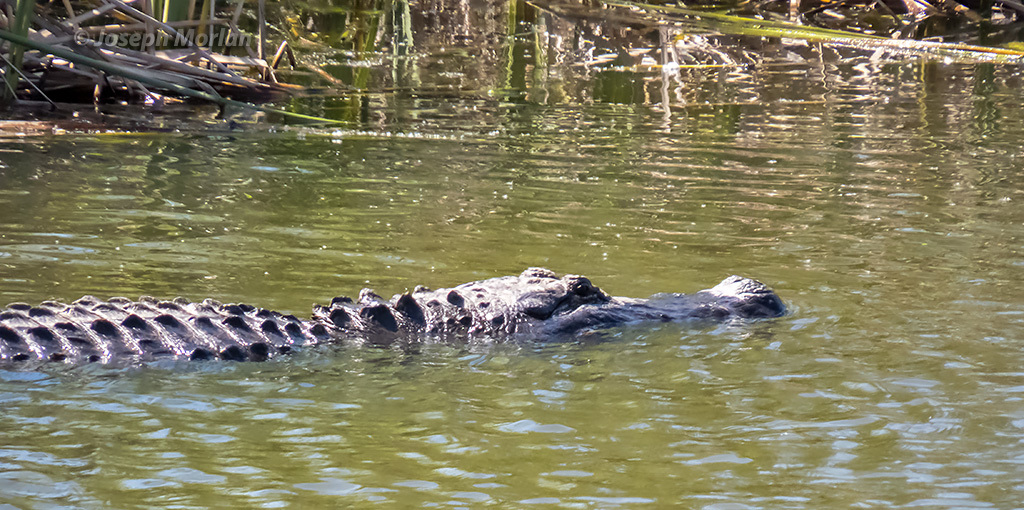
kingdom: Animalia
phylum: Chordata
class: Crocodylia
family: Alligatoridae
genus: Alligator
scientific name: Alligator mississippiensis
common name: American alligator
